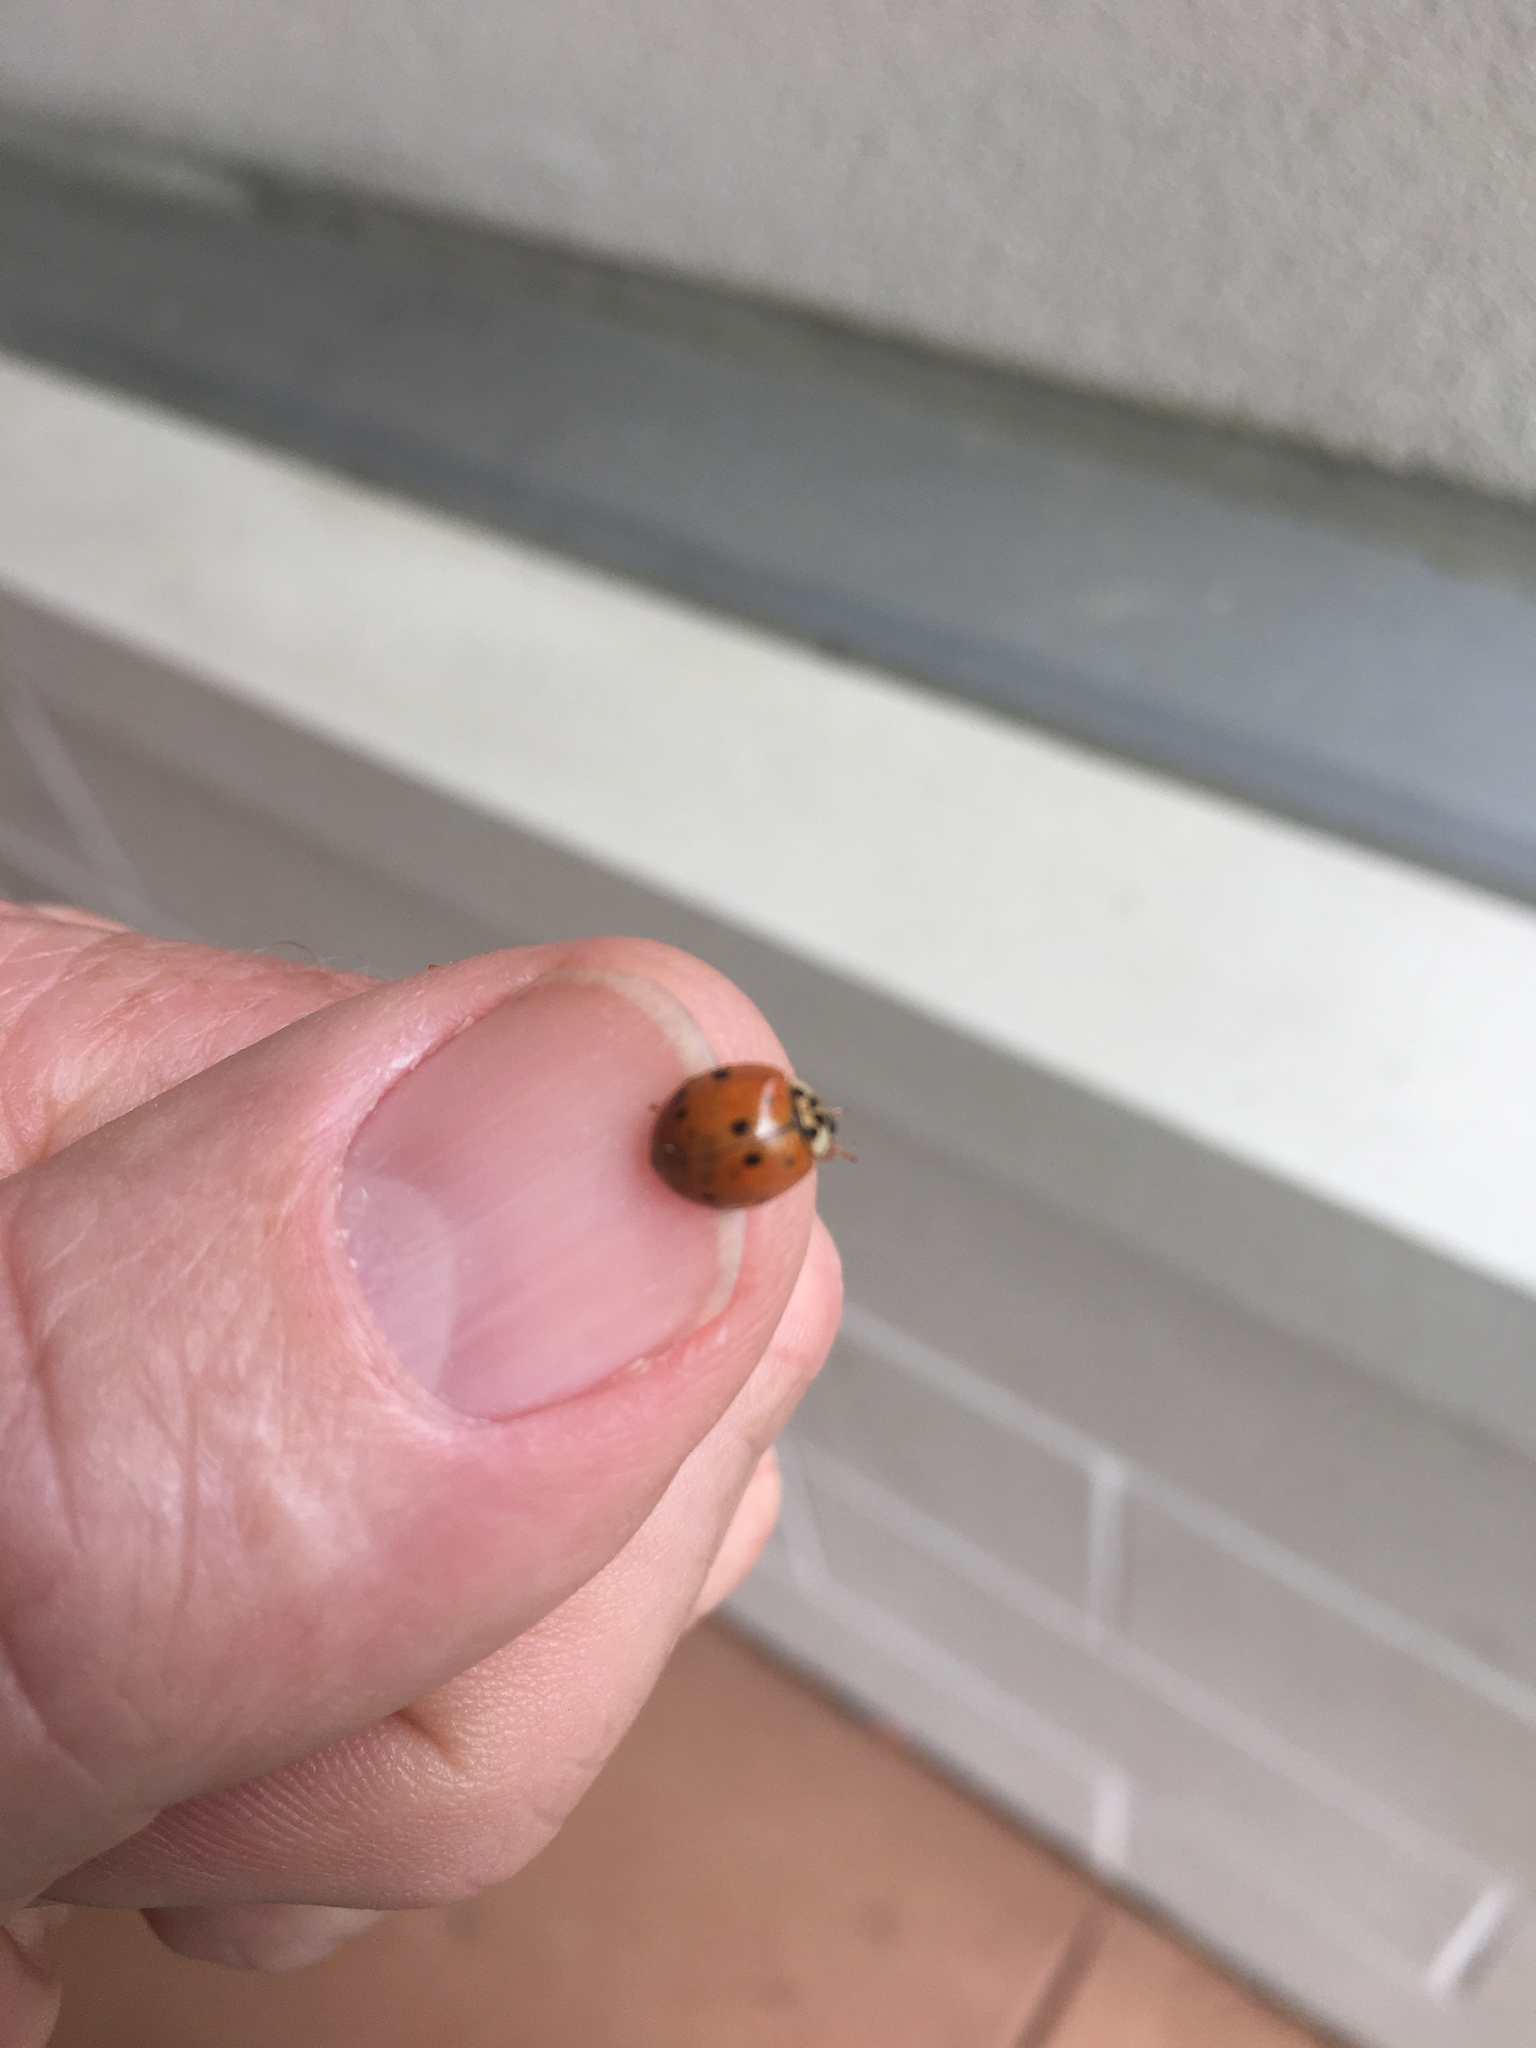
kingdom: Animalia
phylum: Arthropoda
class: Insecta
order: Coleoptera
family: Coccinellidae
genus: Harmonia
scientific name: Harmonia axyridis
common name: Harlequin ladybird
